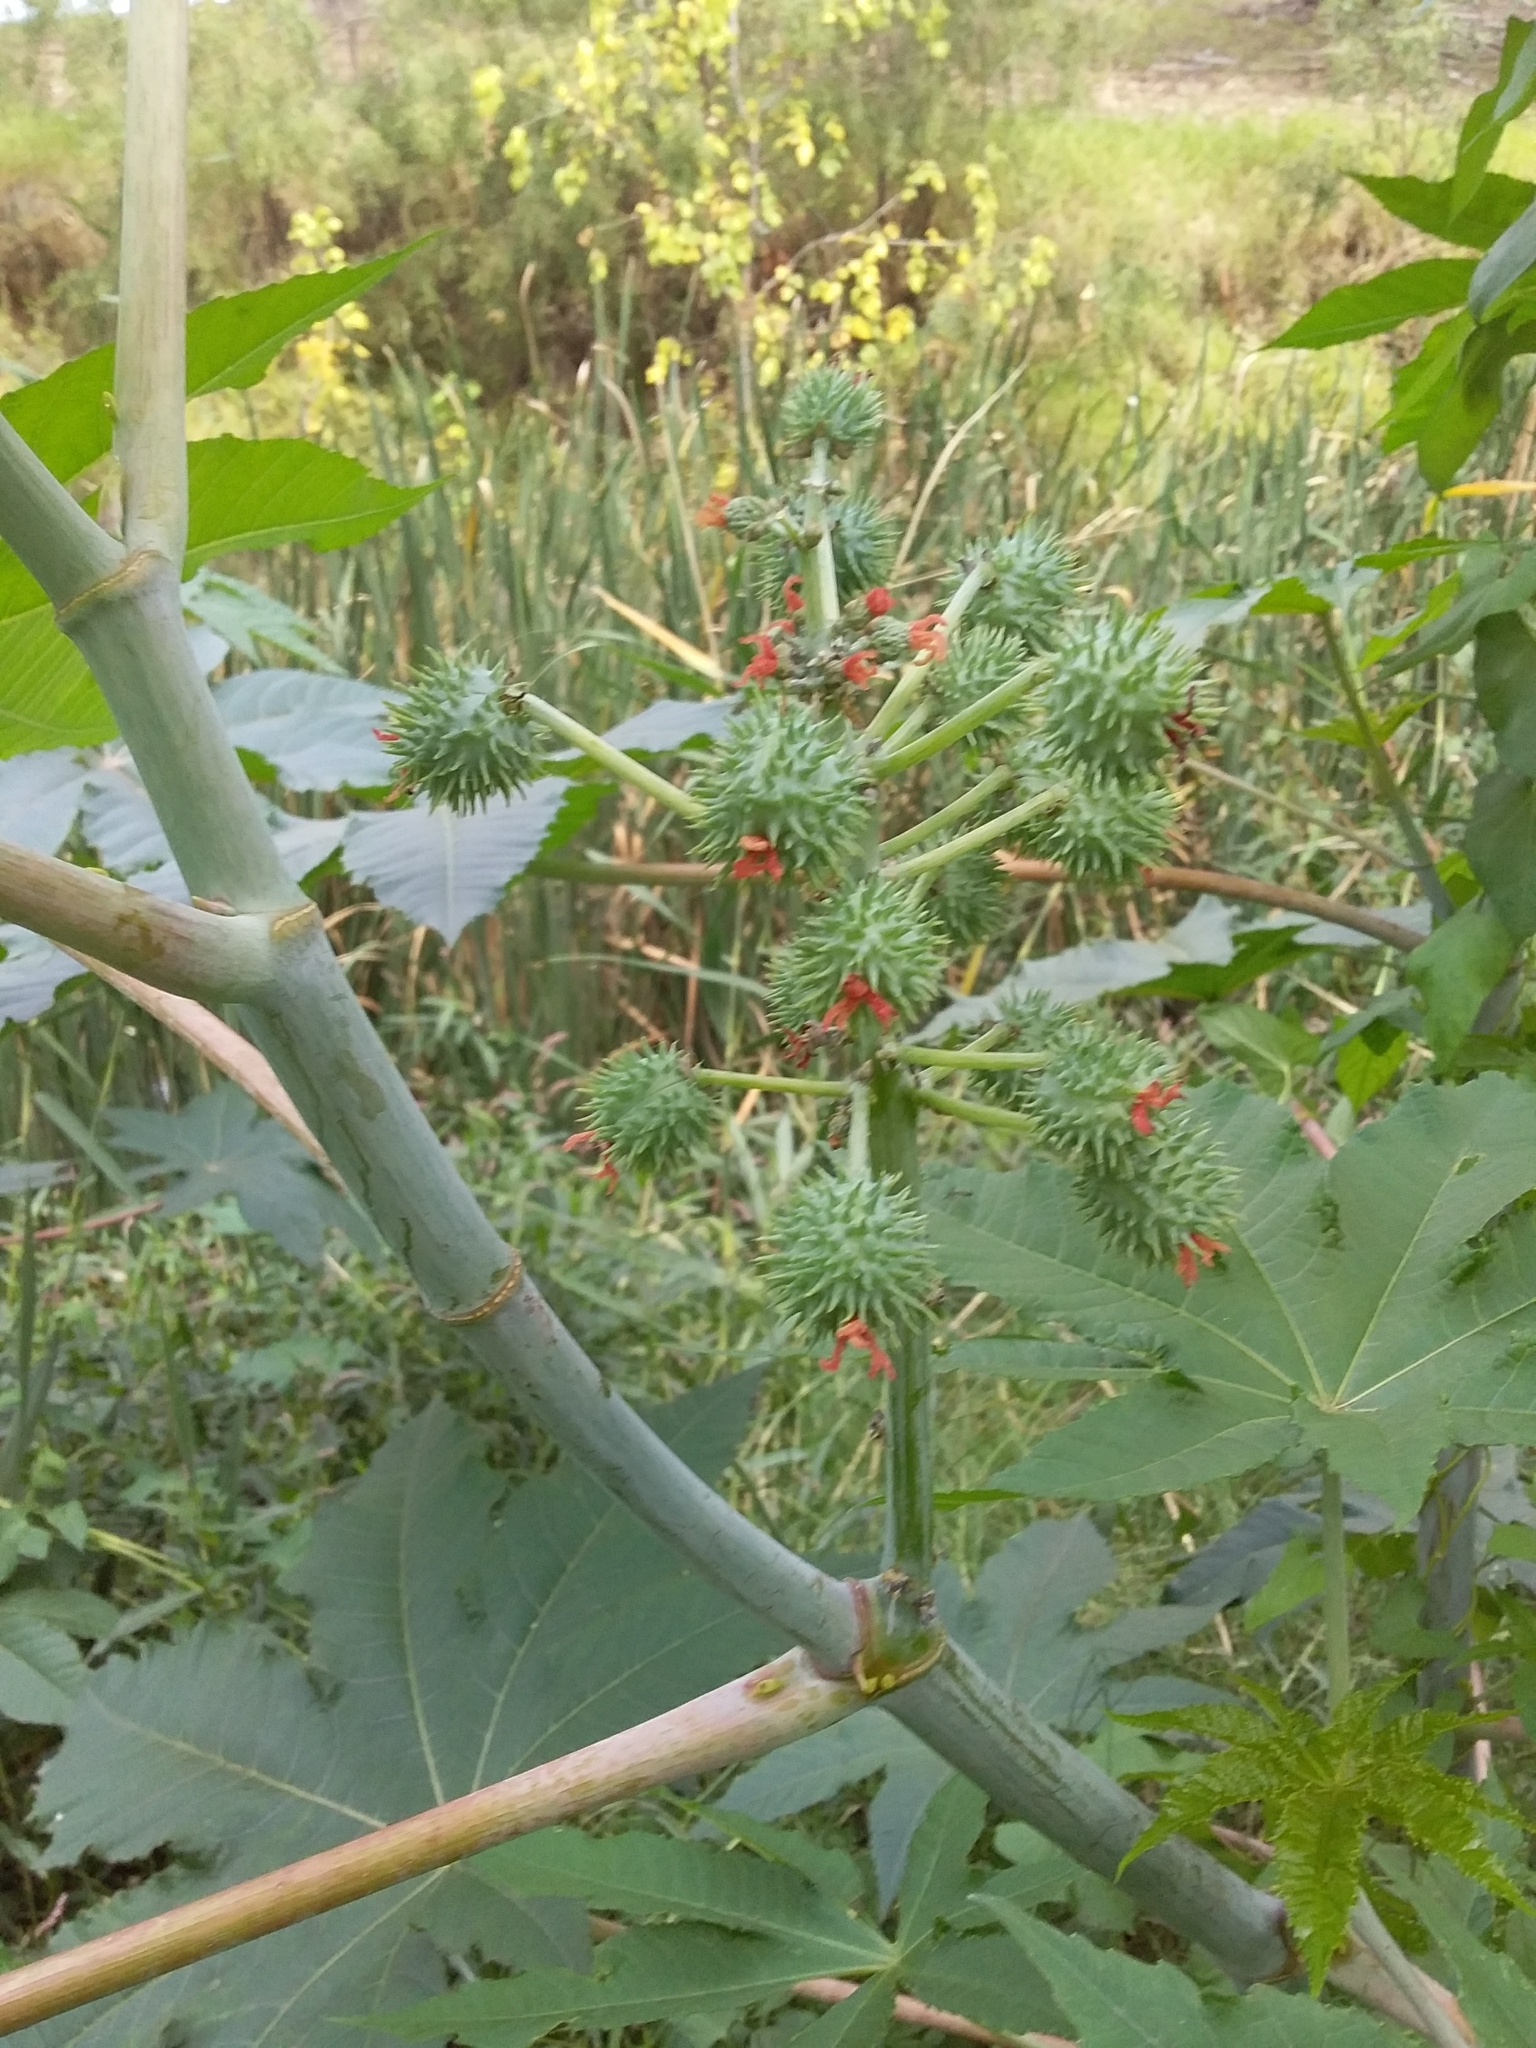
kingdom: Plantae
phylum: Tracheophyta
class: Magnoliopsida
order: Malpighiales
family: Euphorbiaceae
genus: Ricinus
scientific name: Ricinus communis
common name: Castor-oil-plant
